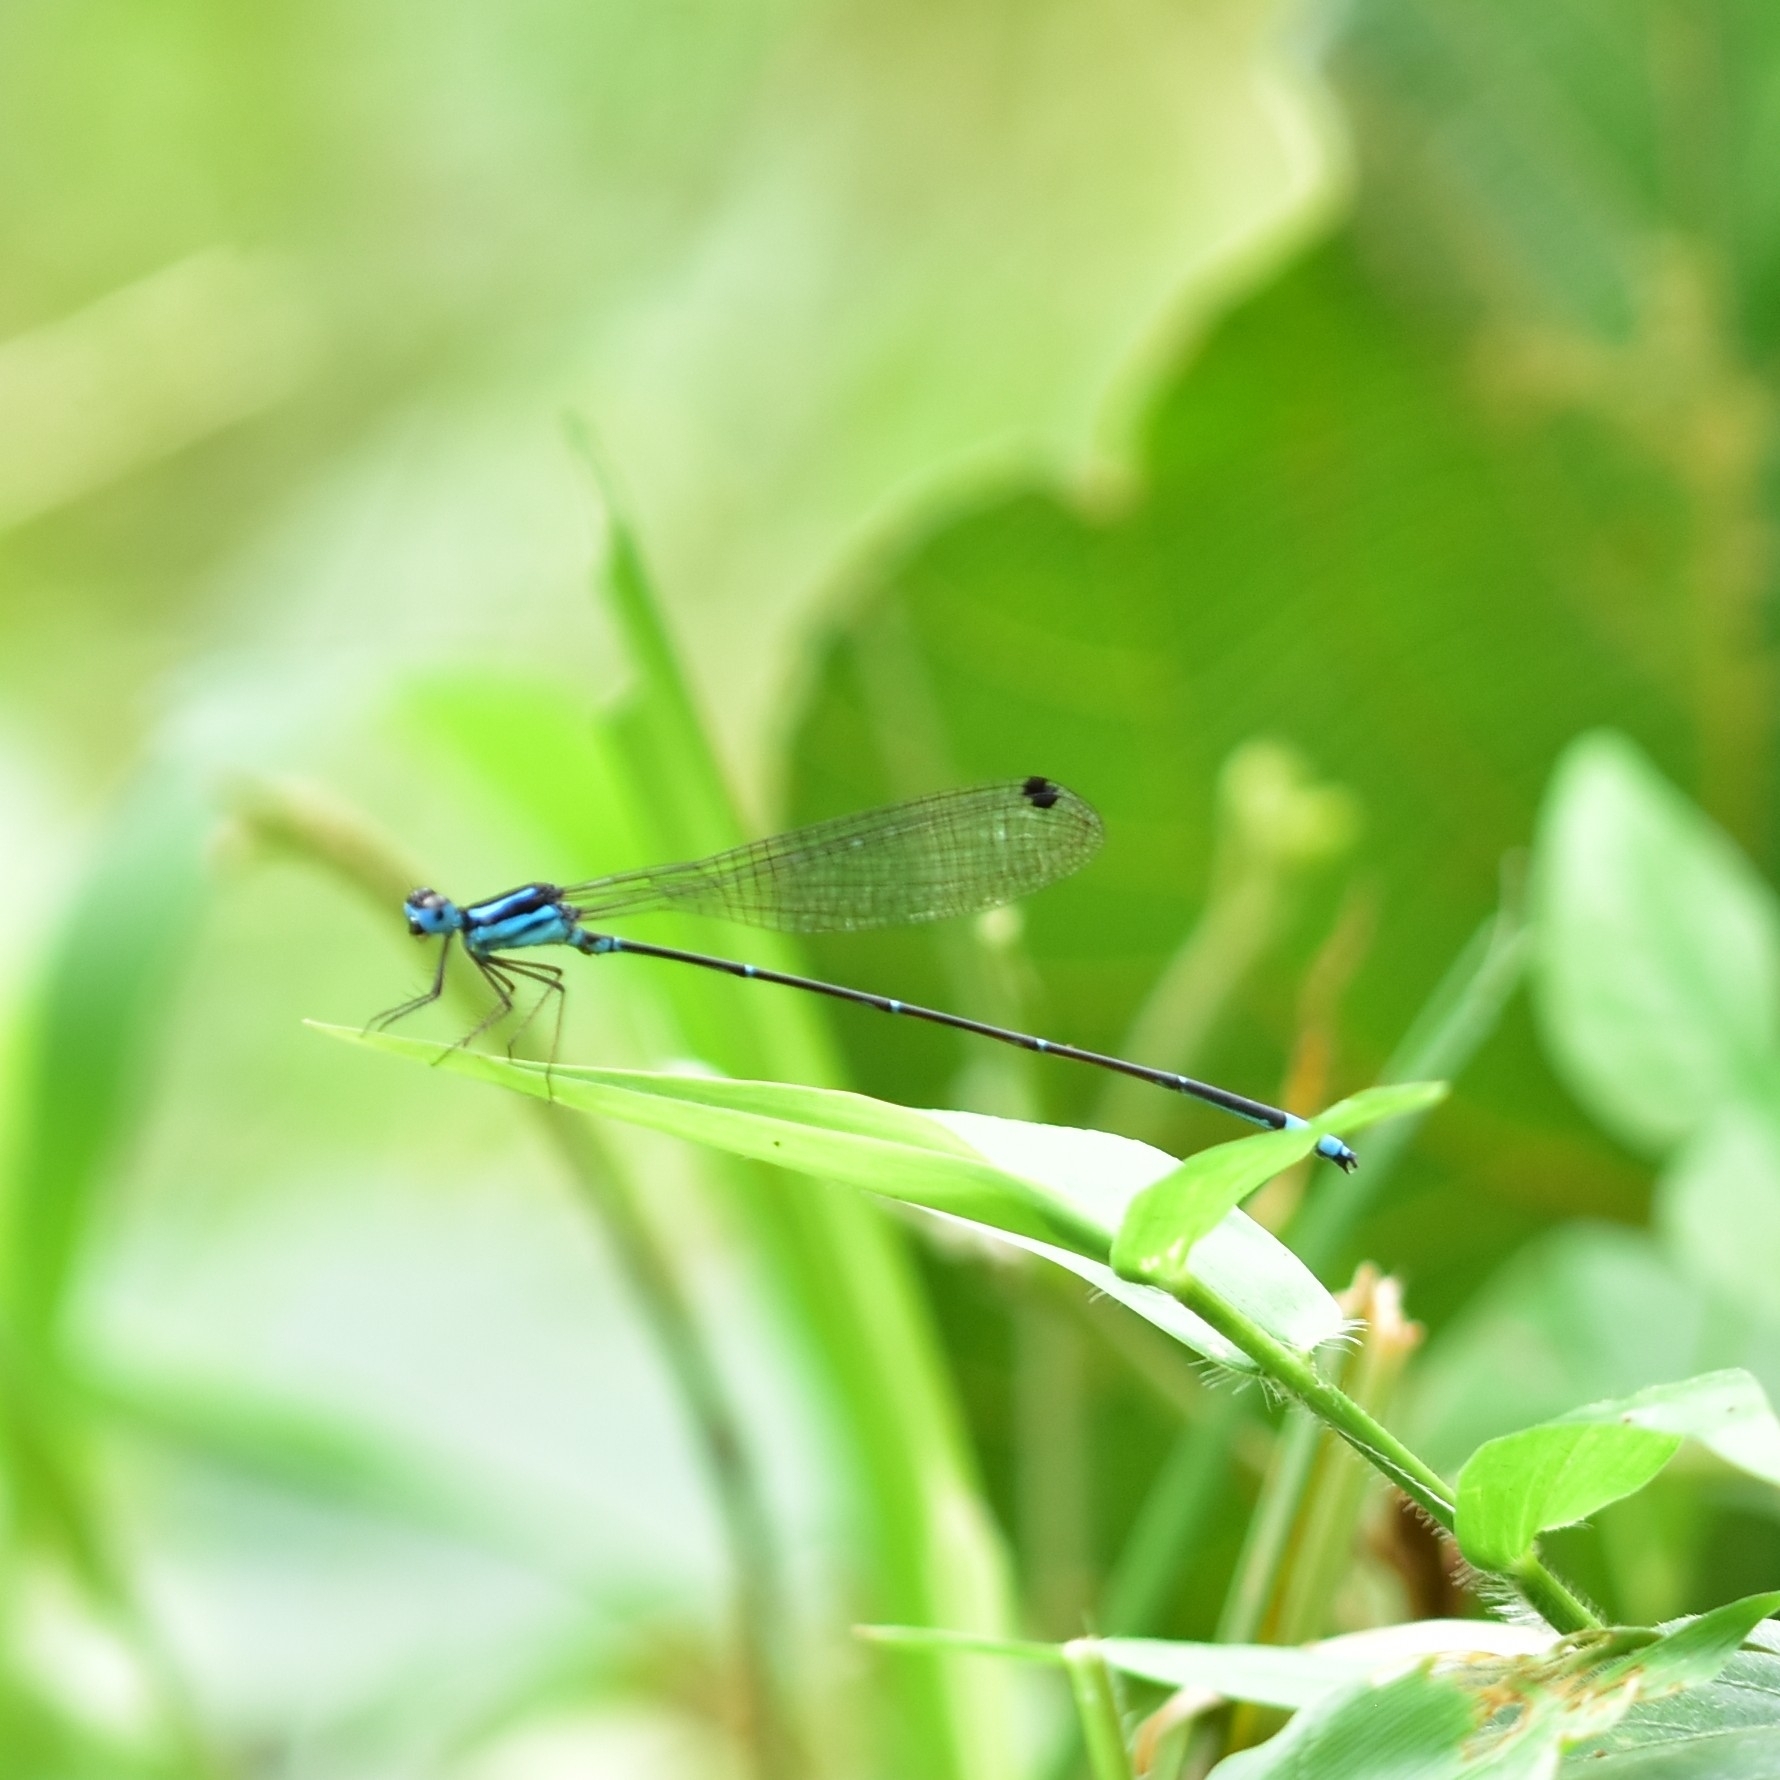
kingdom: Animalia
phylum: Arthropoda
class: Insecta
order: Odonata
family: Platycnemididae
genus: Caconeura
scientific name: Caconeura risi
